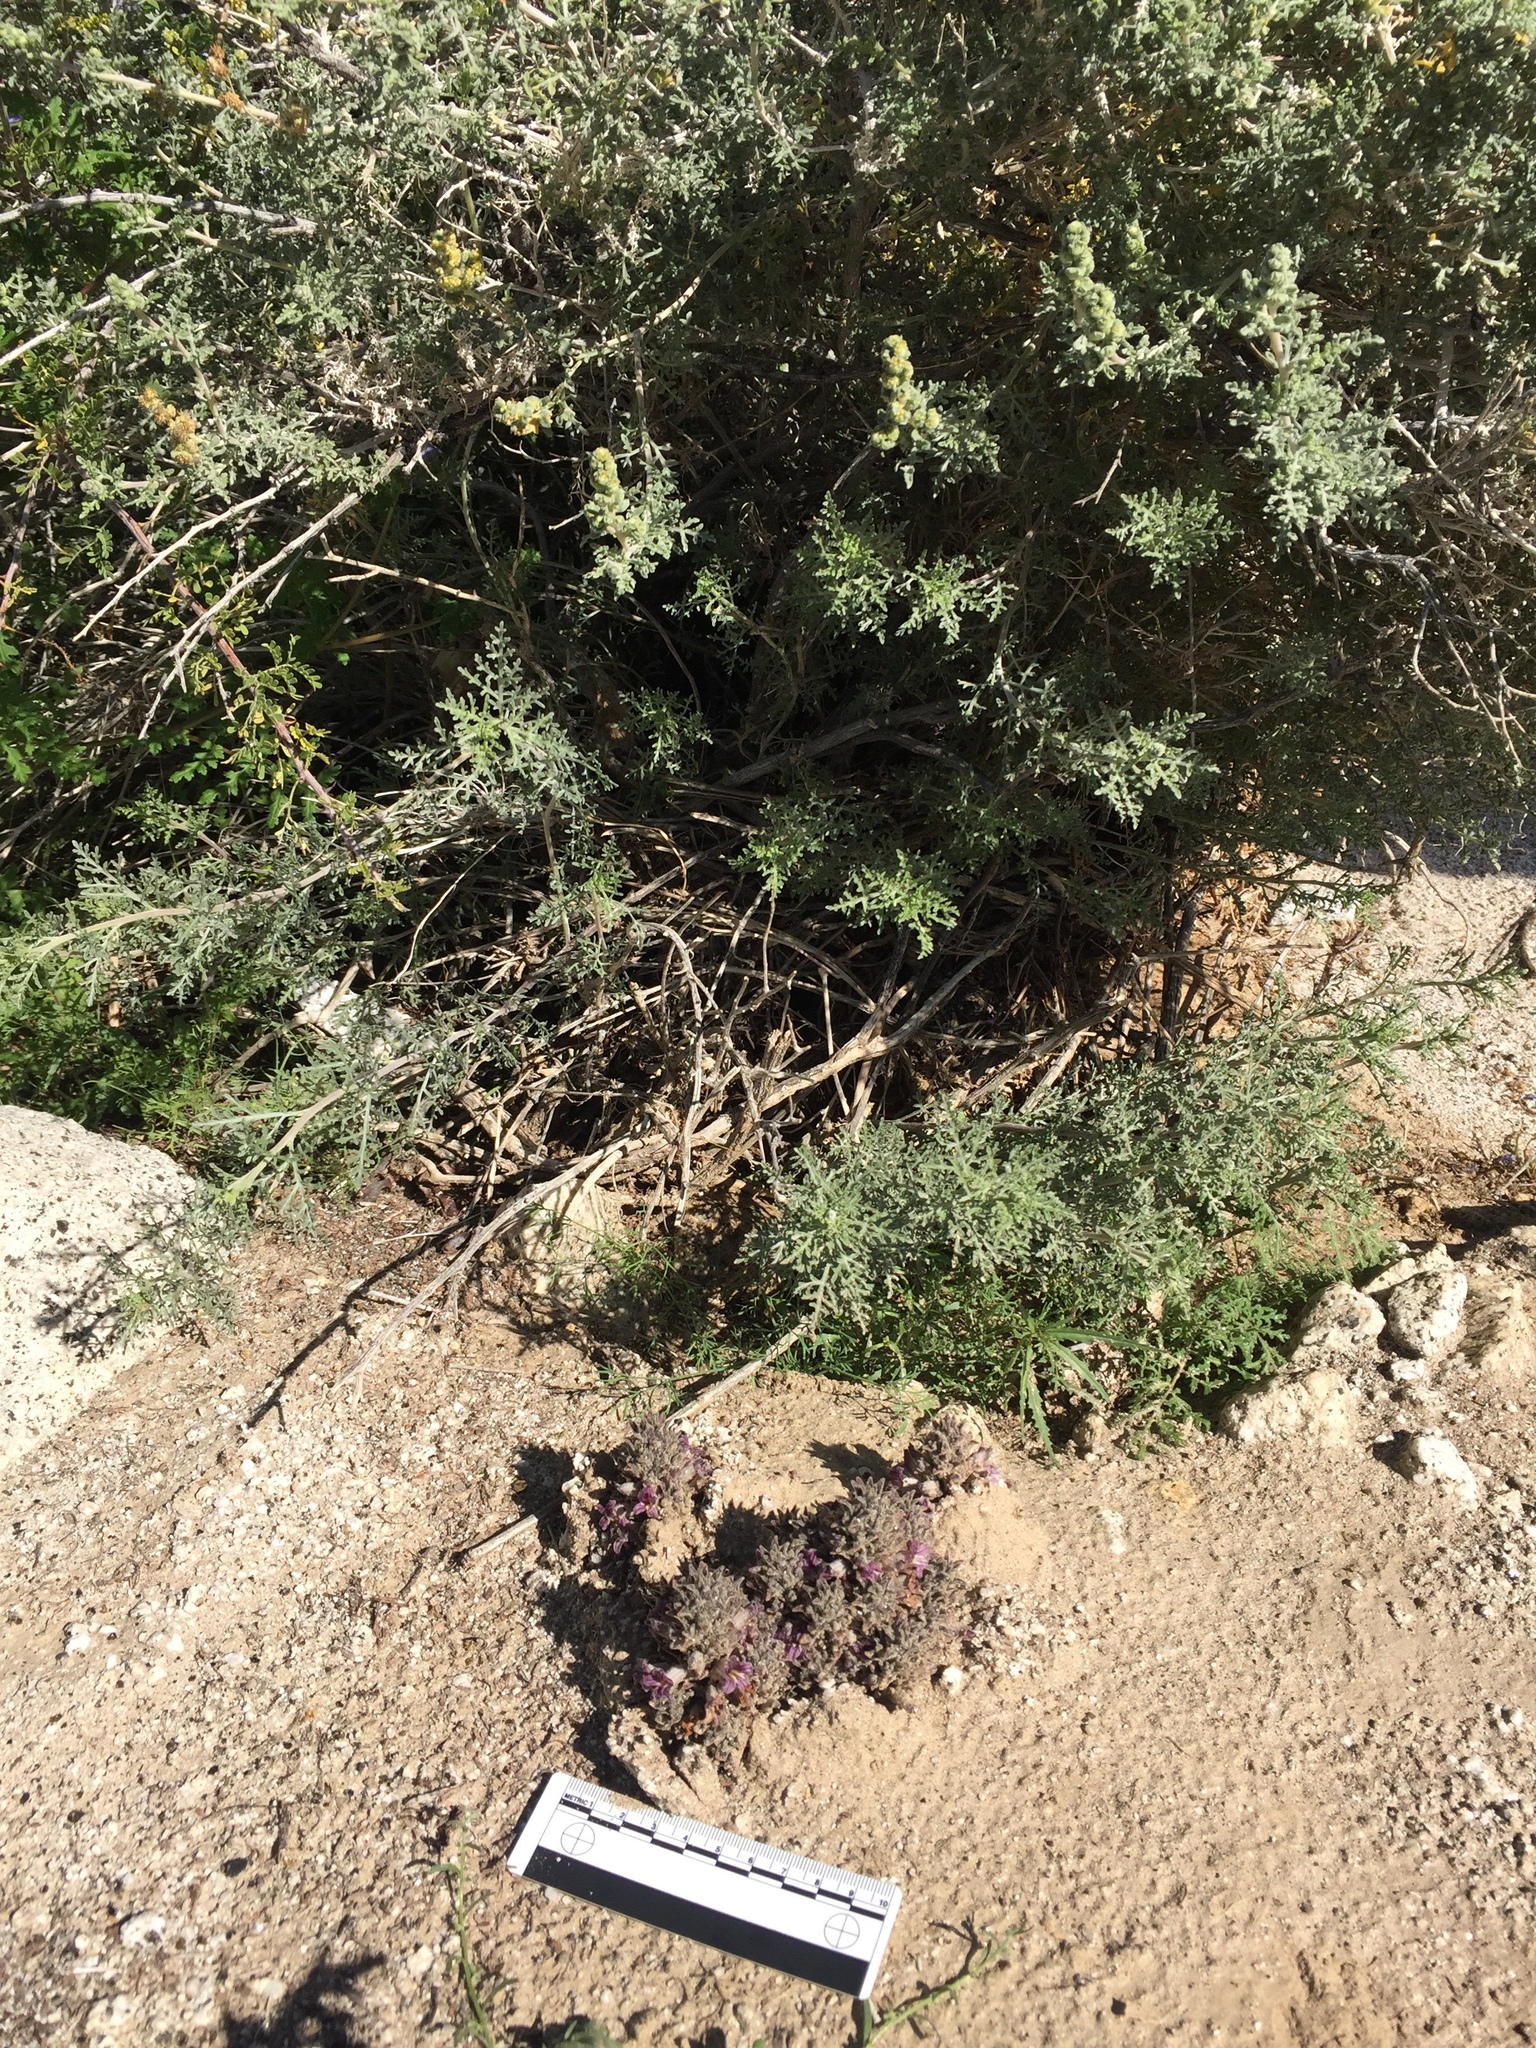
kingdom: Plantae
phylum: Tracheophyta
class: Magnoliopsida
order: Lamiales
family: Orobanchaceae
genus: Aphyllon
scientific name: Aphyllon cooperi
